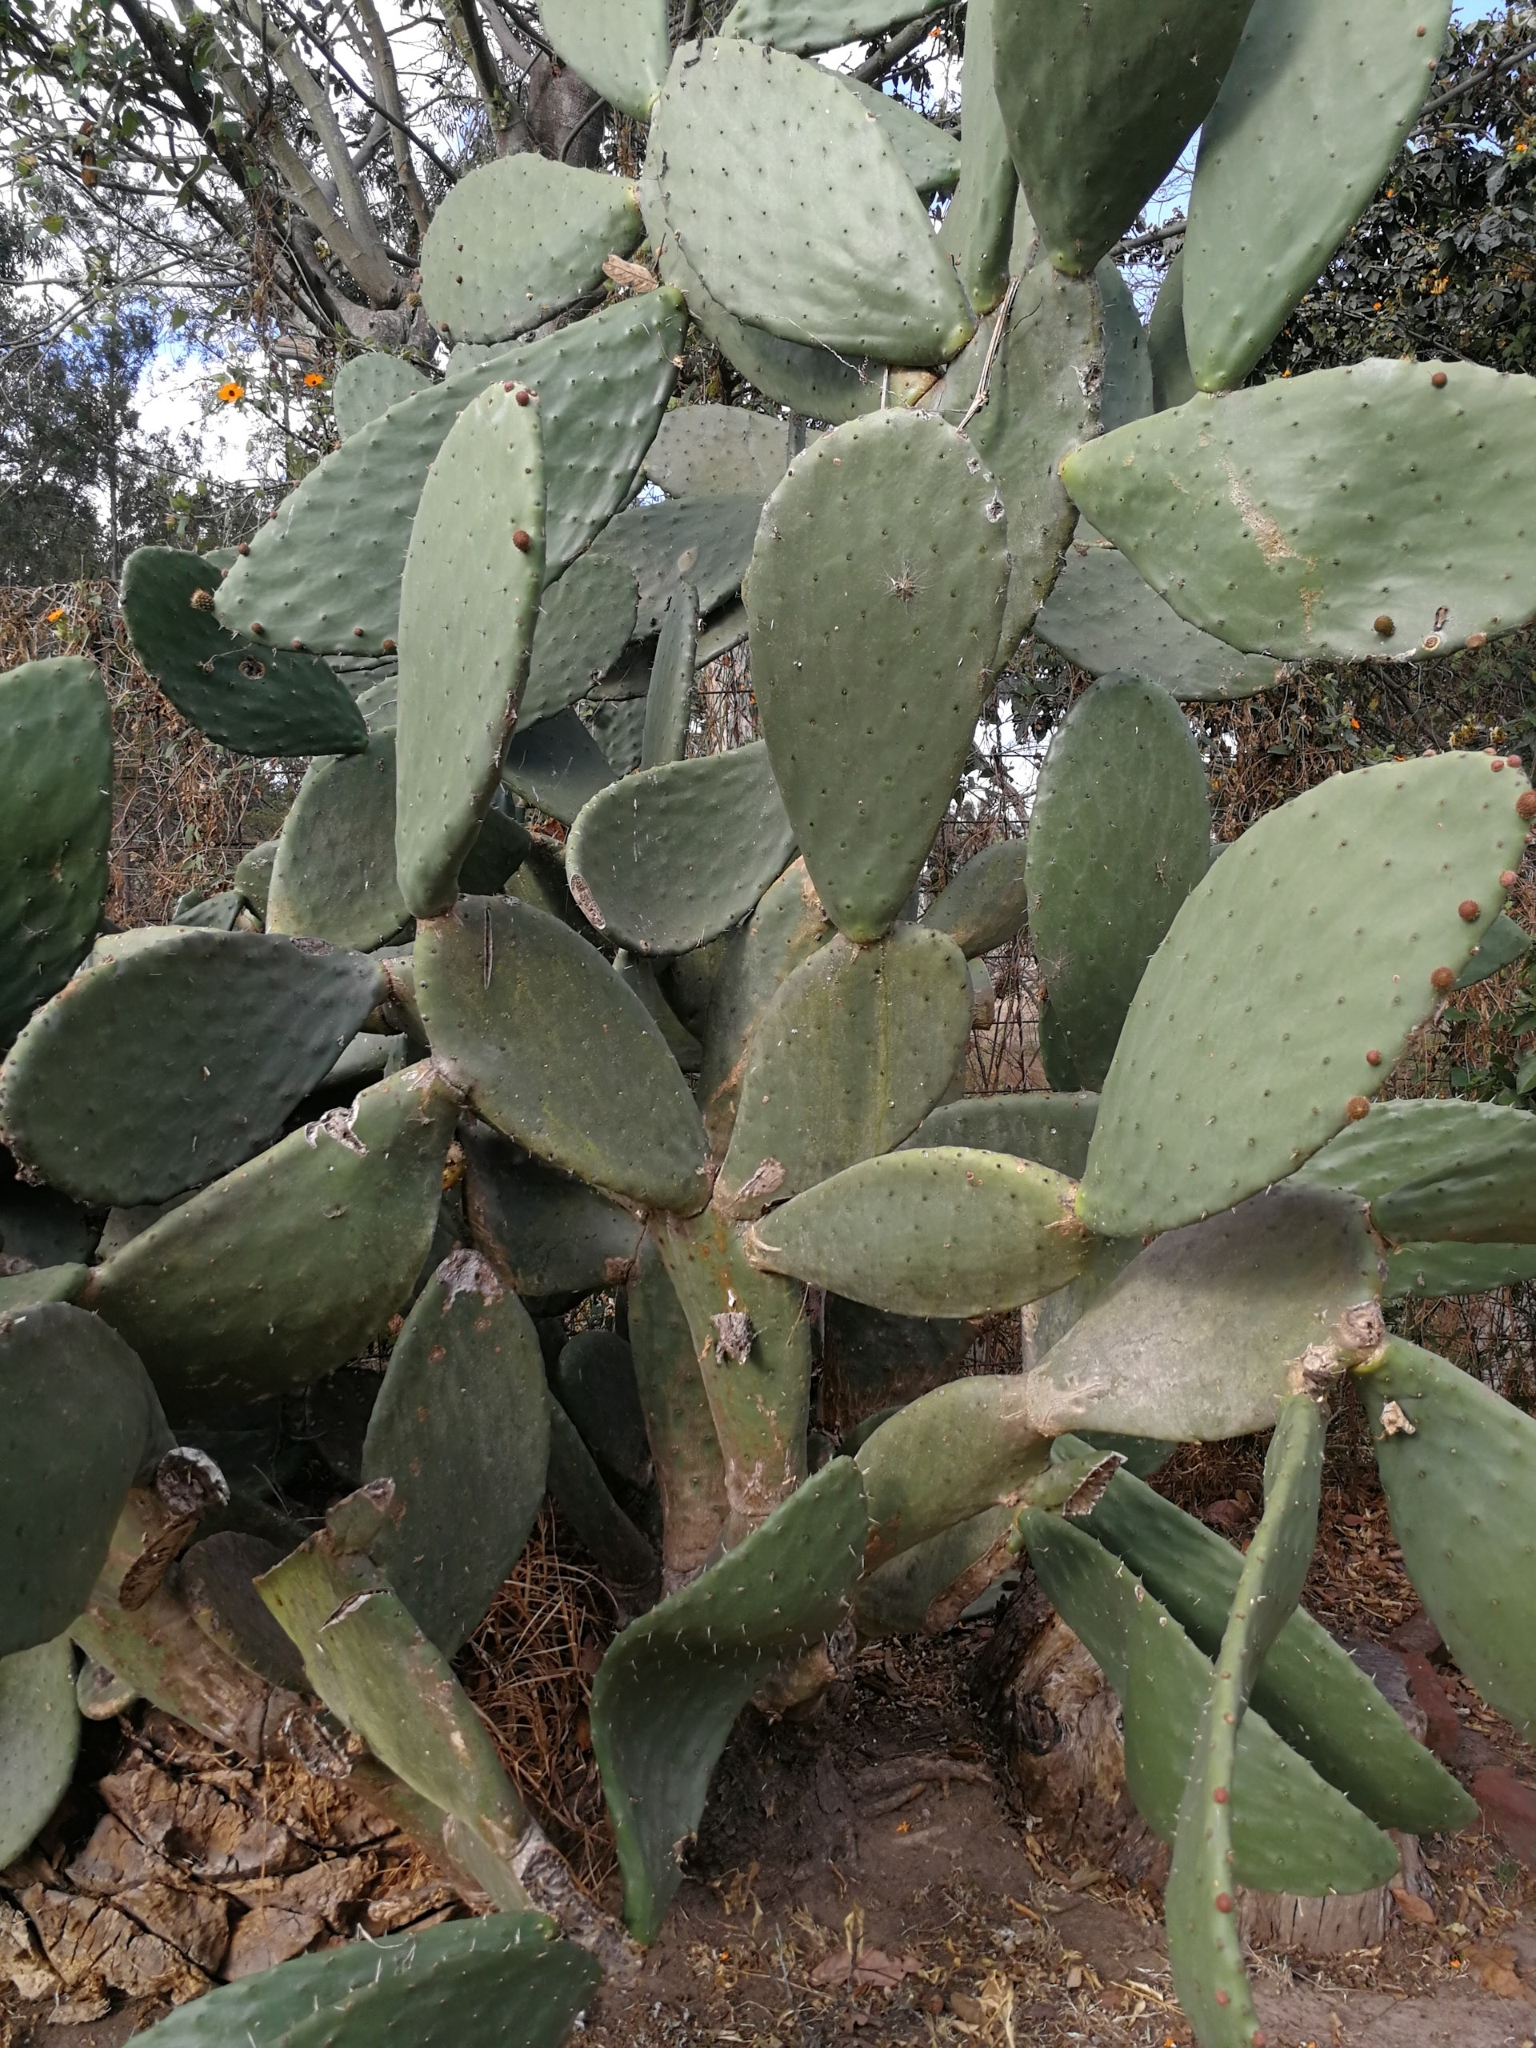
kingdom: Plantae
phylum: Tracheophyta
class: Magnoliopsida
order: Caryophyllales
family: Cactaceae
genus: Opuntia
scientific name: Opuntia ficus-indica
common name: Barbary fig
